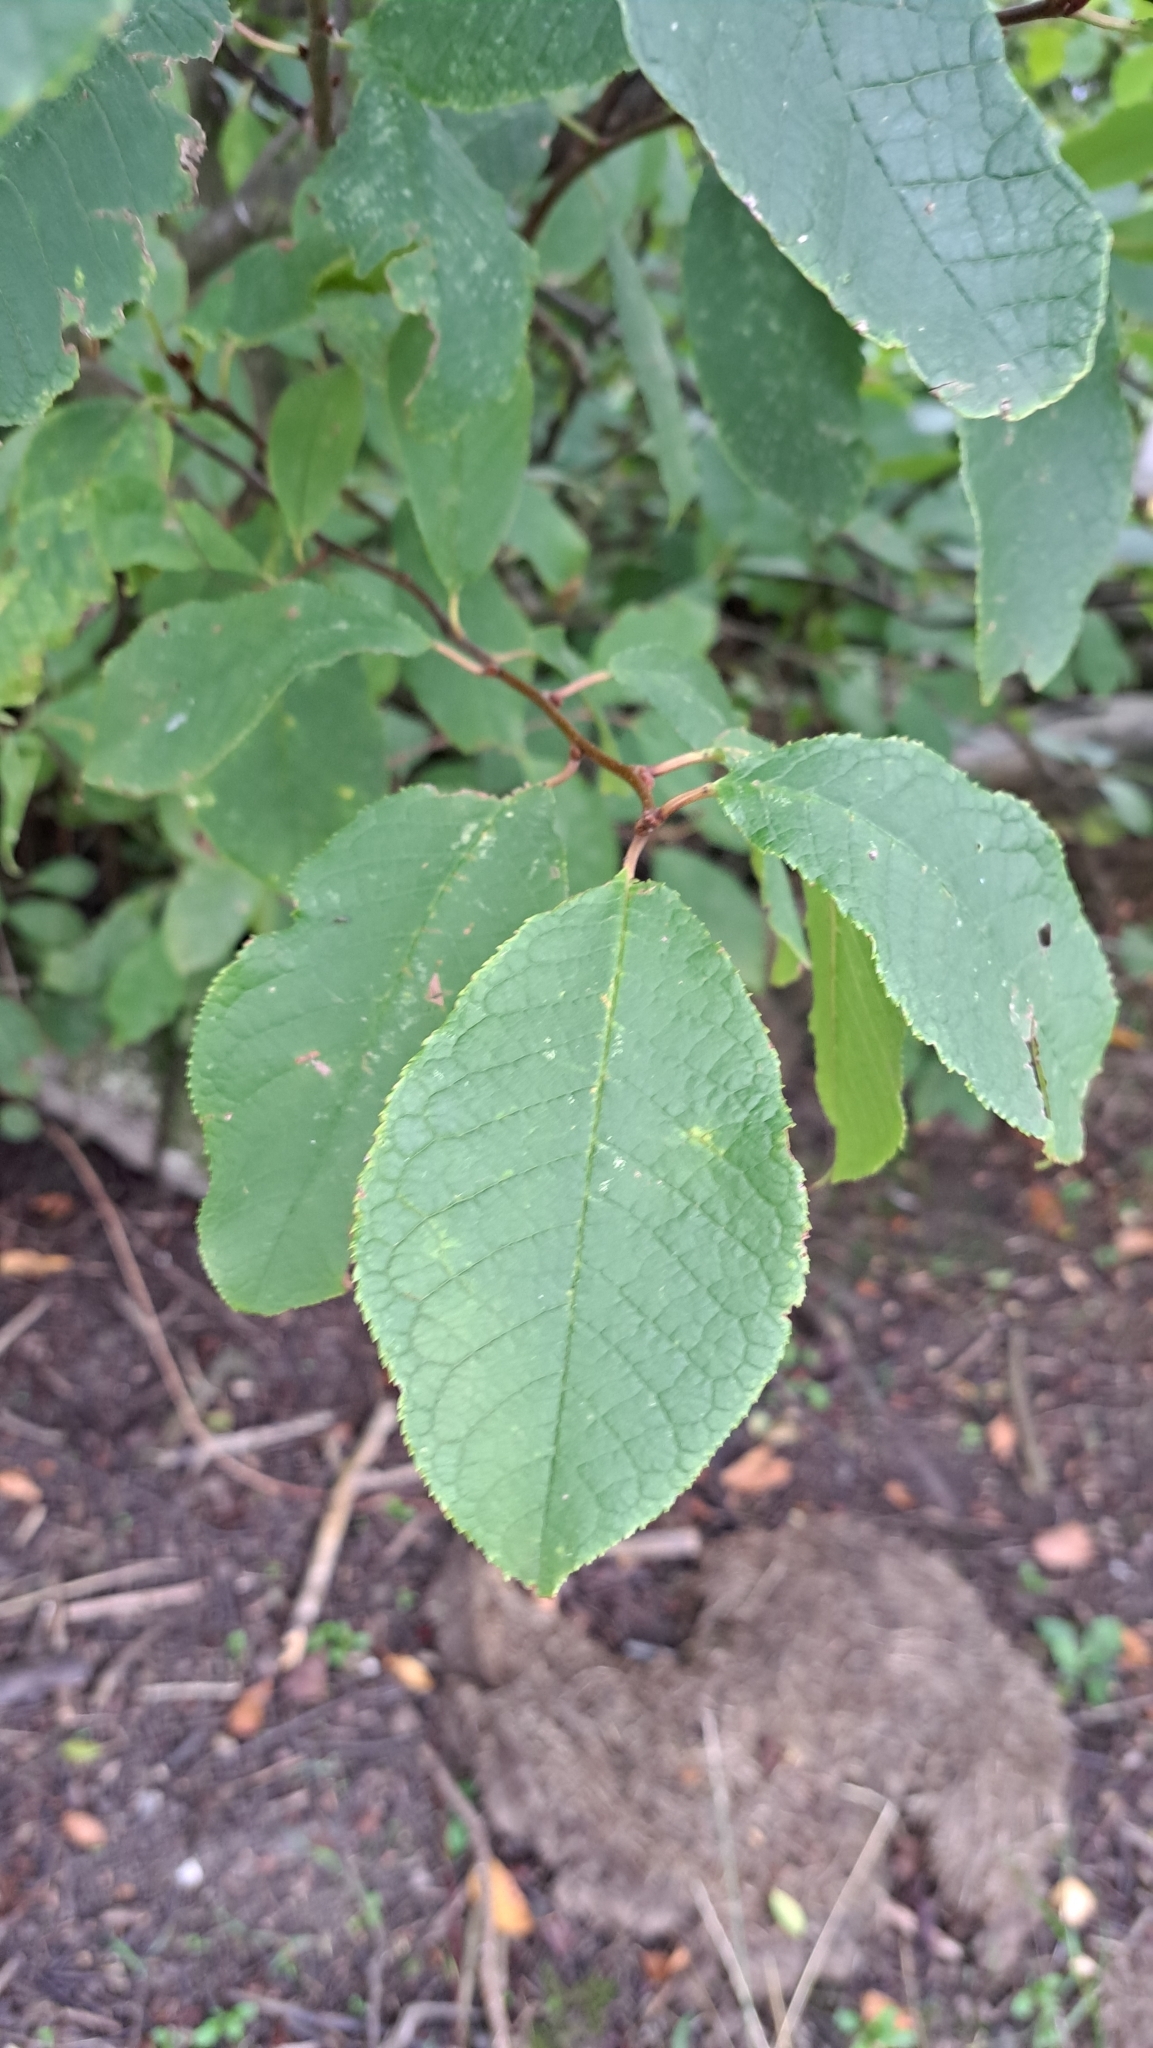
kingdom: Plantae
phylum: Tracheophyta
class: Magnoliopsida
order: Rosales
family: Rosaceae
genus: Prunus
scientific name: Prunus padus
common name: Bird cherry
